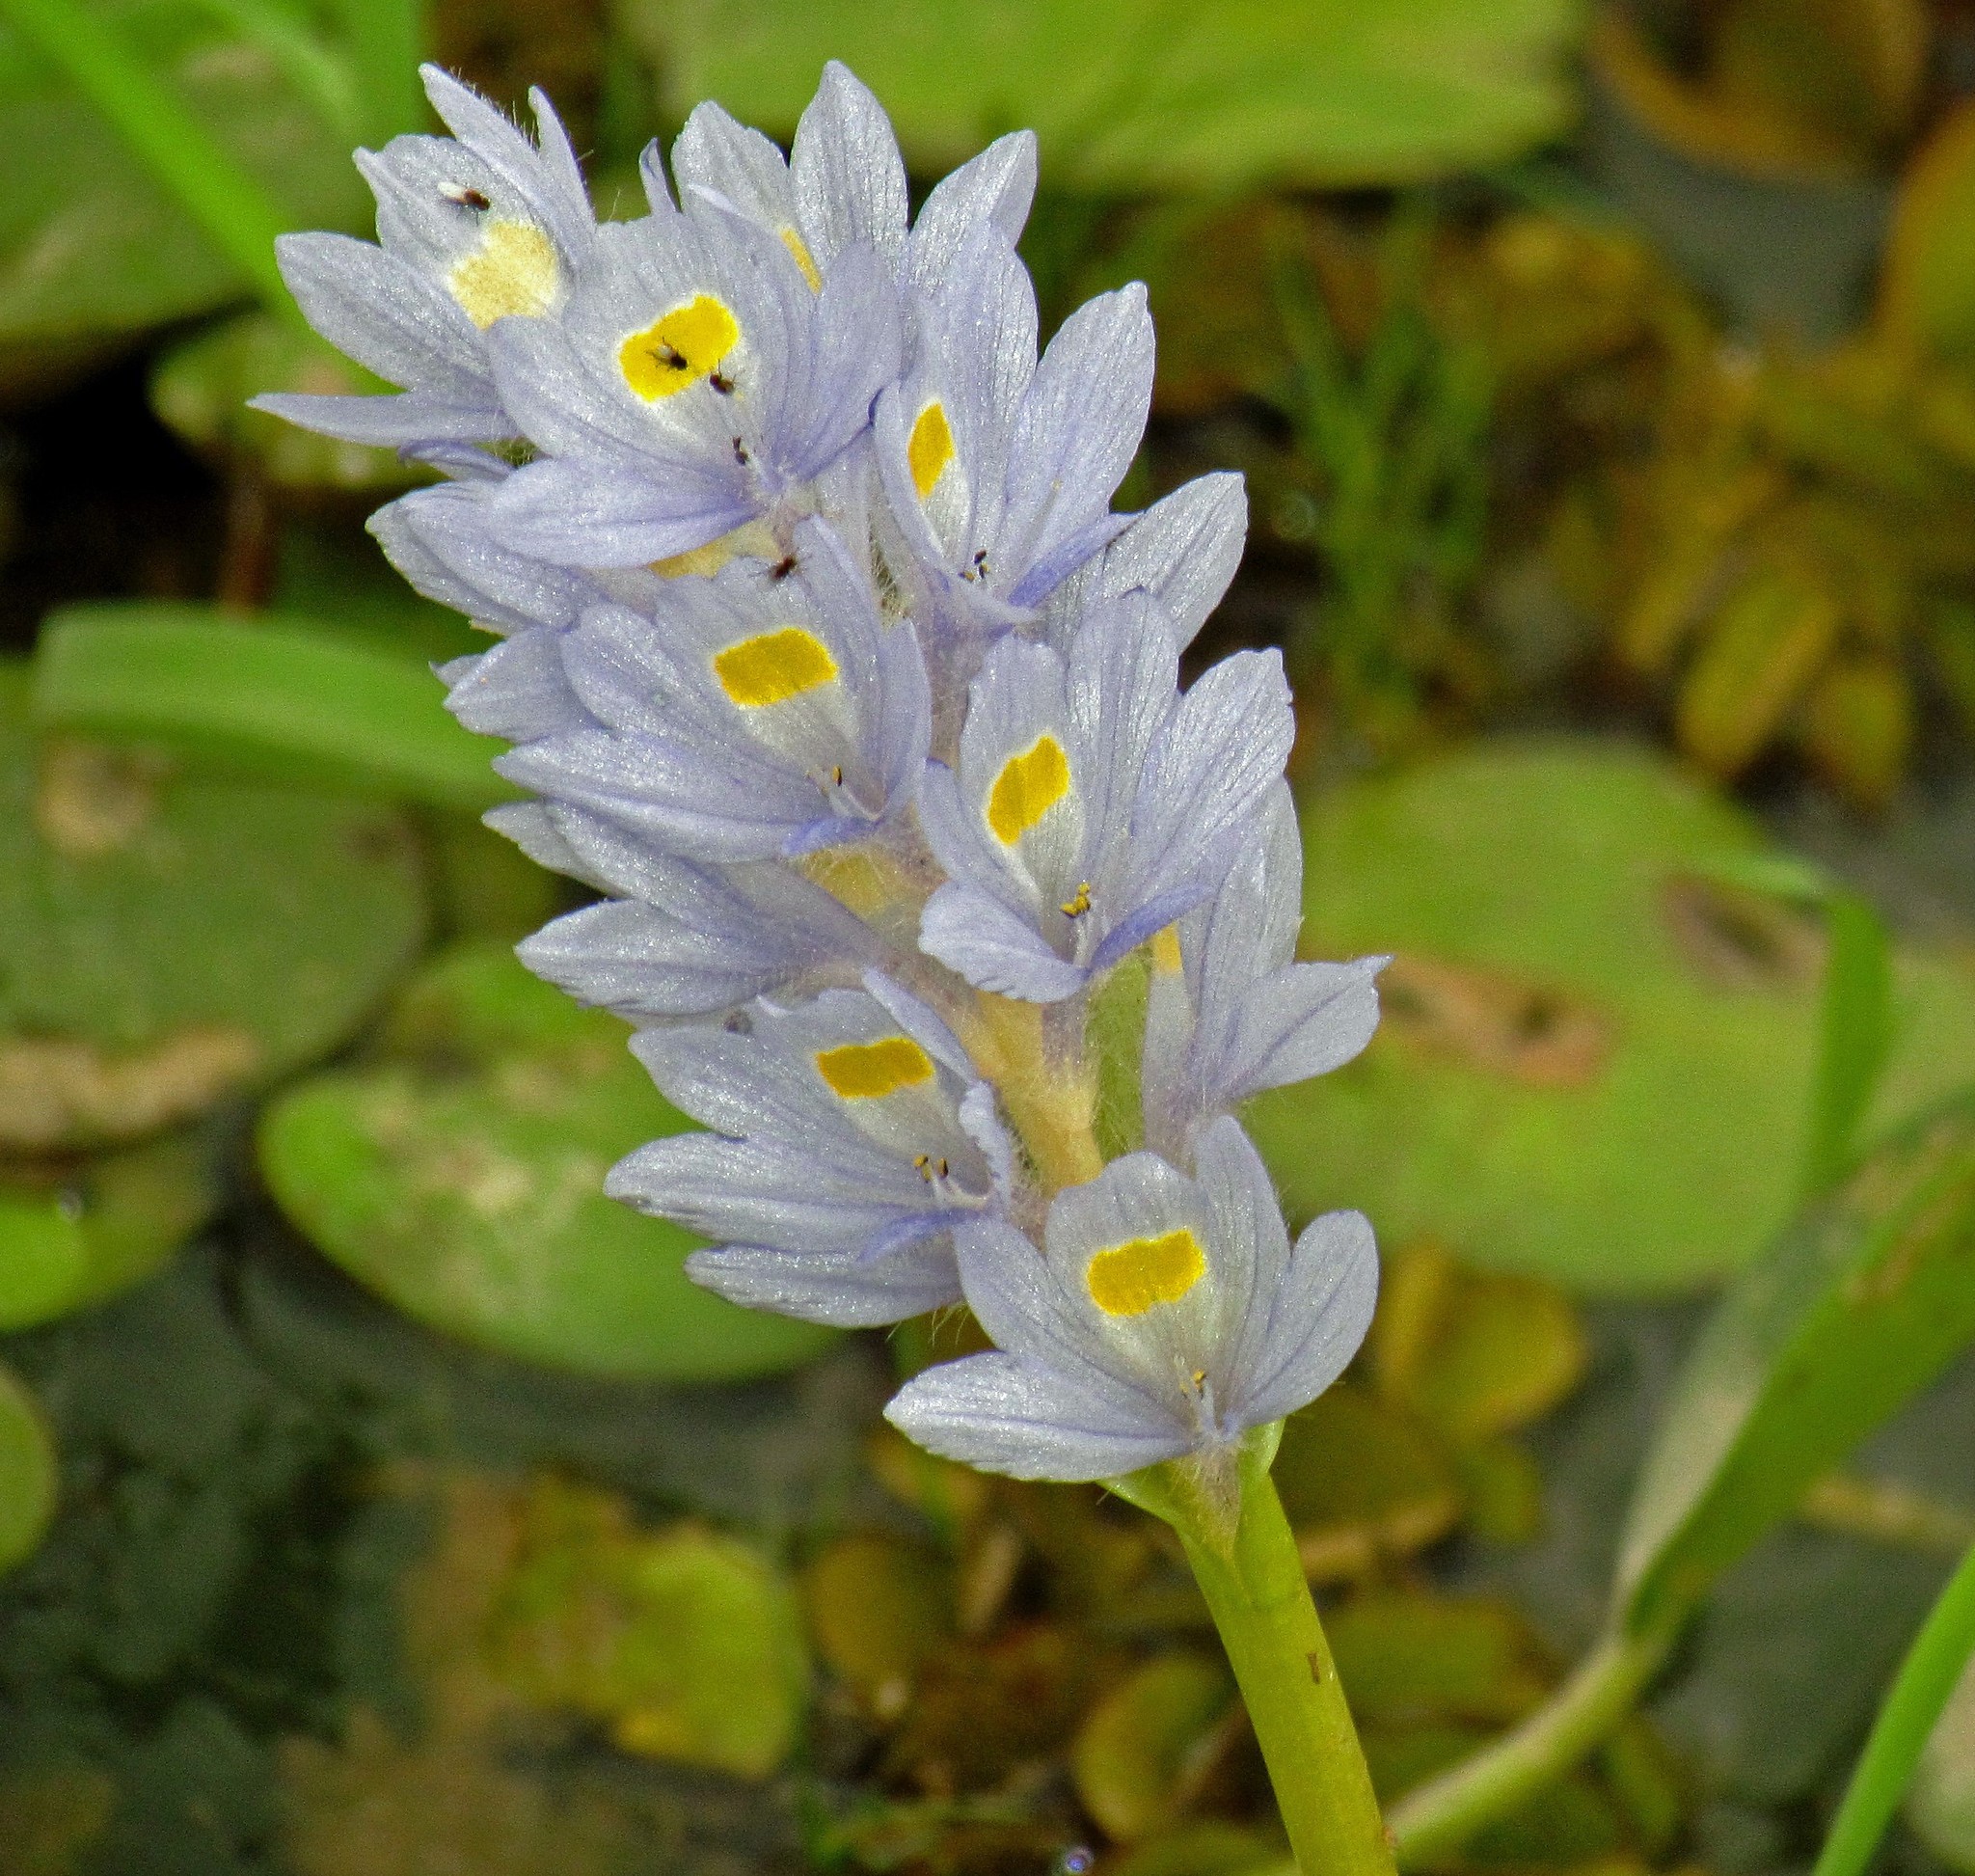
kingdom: Plantae
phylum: Tracheophyta
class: Liliopsida
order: Commelinales
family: Pontederiaceae
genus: Pontederia
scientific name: Pontederia crassipes
